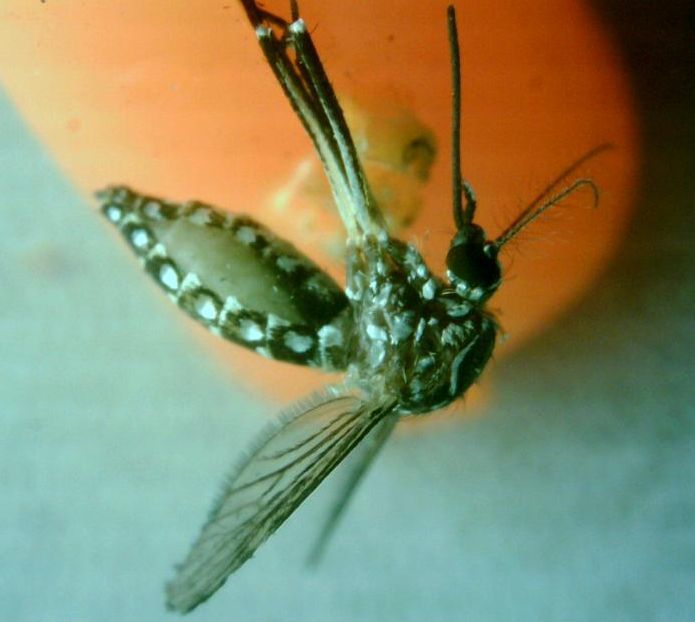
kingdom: Animalia
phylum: Arthropoda
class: Insecta
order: Diptera
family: Culicidae
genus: Aedes
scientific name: Aedes aegypti
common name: Yellow fever mosquito
